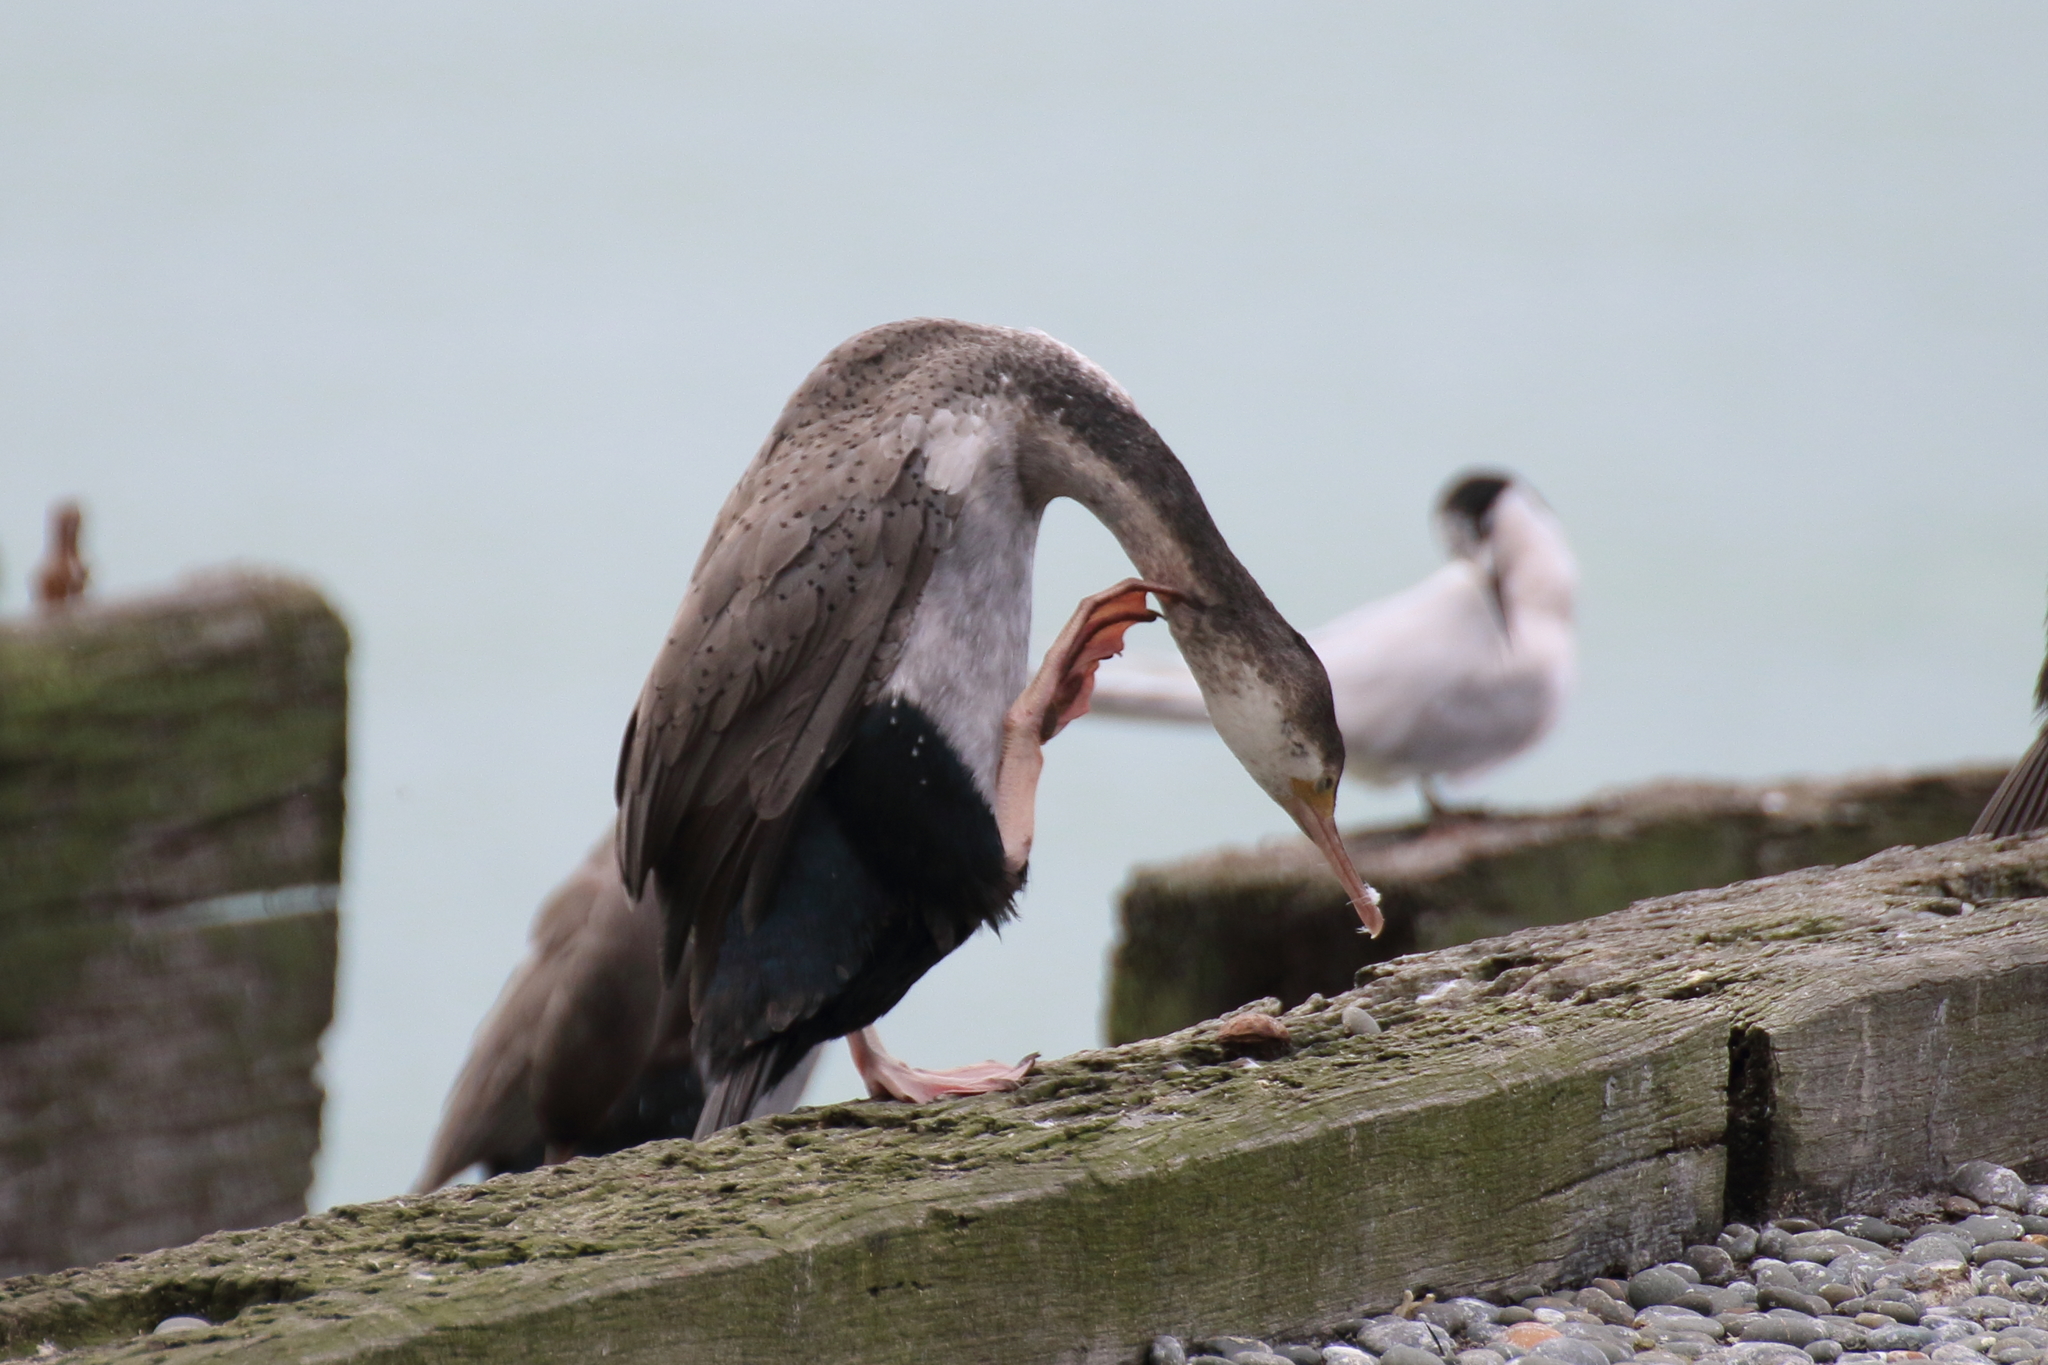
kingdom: Animalia
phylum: Chordata
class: Aves
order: Suliformes
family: Phalacrocoracidae
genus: Phalacrocorax
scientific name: Phalacrocorax punctatus
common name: Spotted shag
